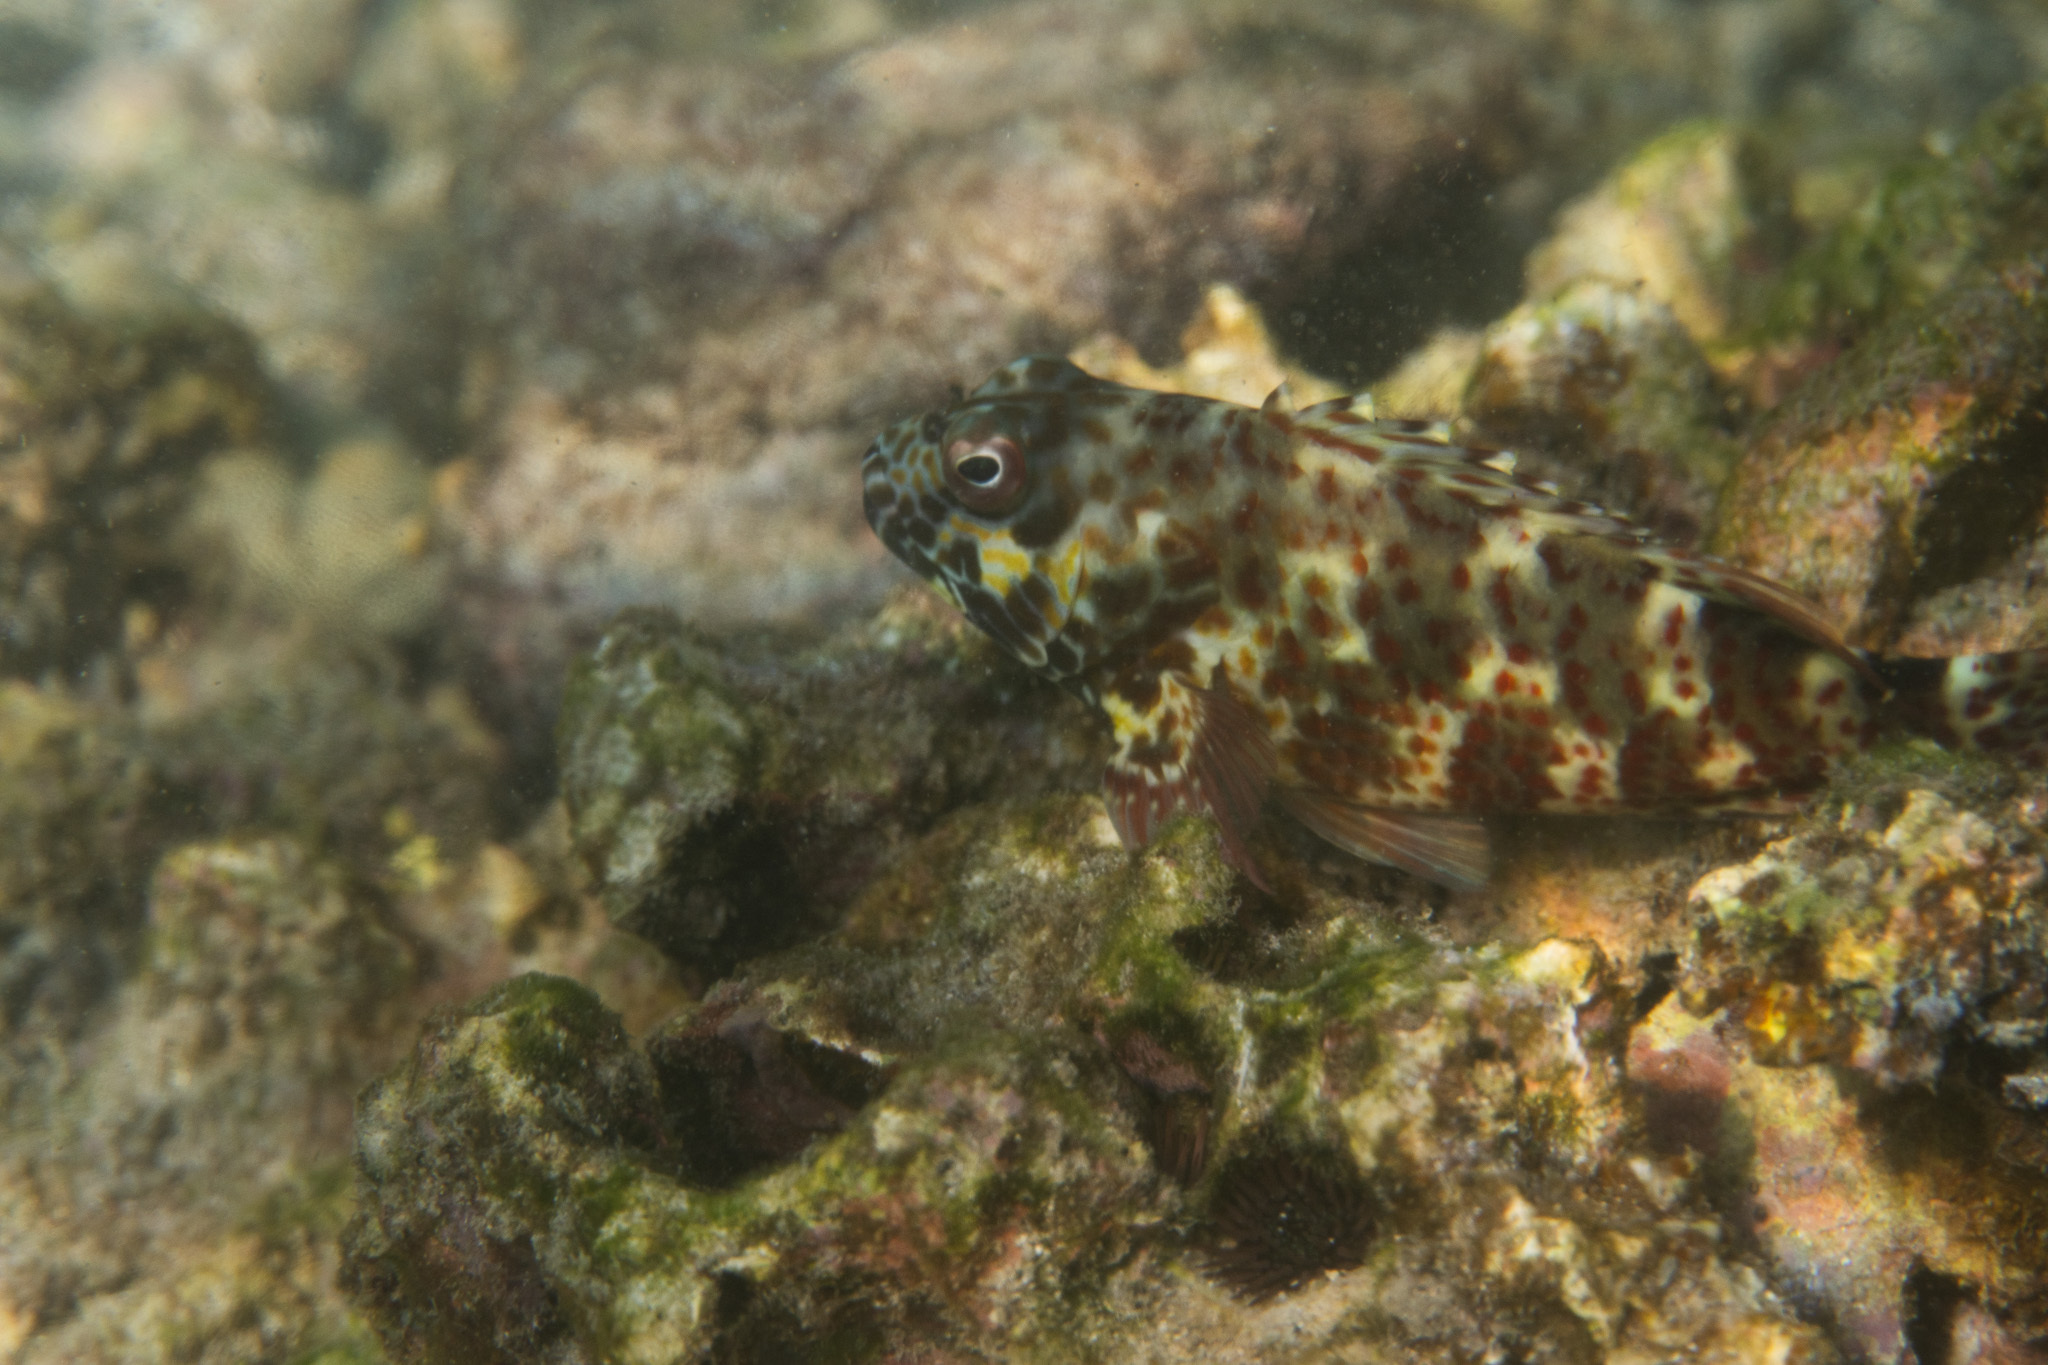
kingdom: Animalia
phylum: Chordata
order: Perciformes
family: Cirrhitidae
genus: Cirrhitus
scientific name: Cirrhitus pinnulatus
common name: Stocky hawkfish
